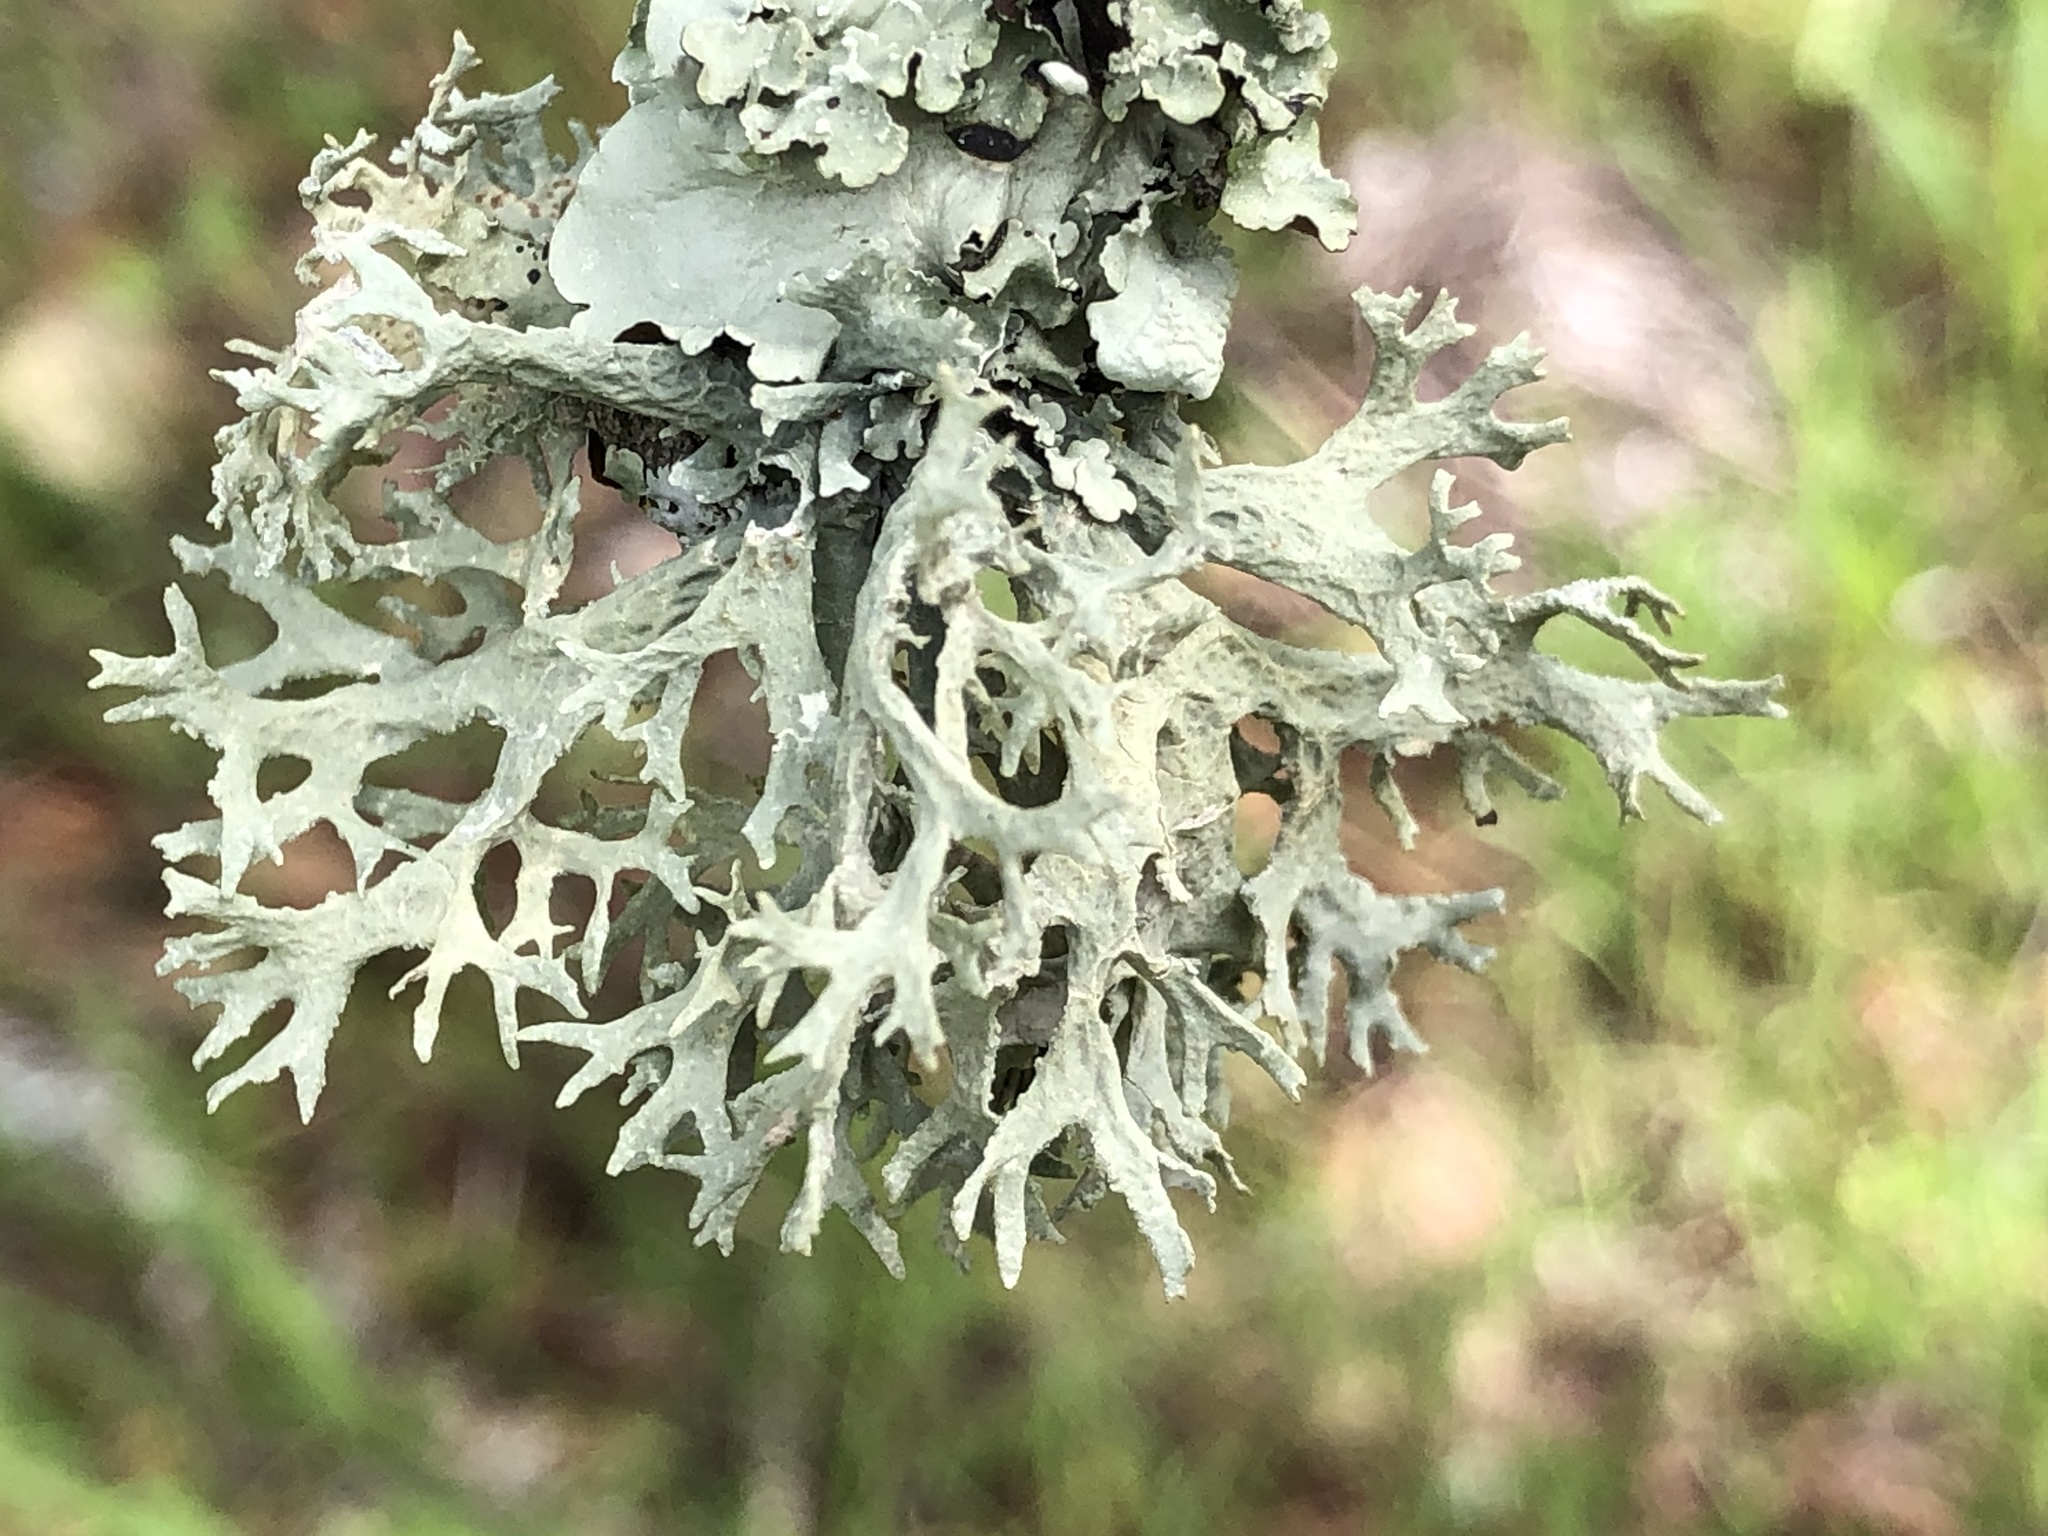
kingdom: Fungi
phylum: Ascomycota
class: Lecanoromycetes
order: Lecanorales
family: Parmeliaceae
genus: Evernia
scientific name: Evernia prunastri
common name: Oak moss
